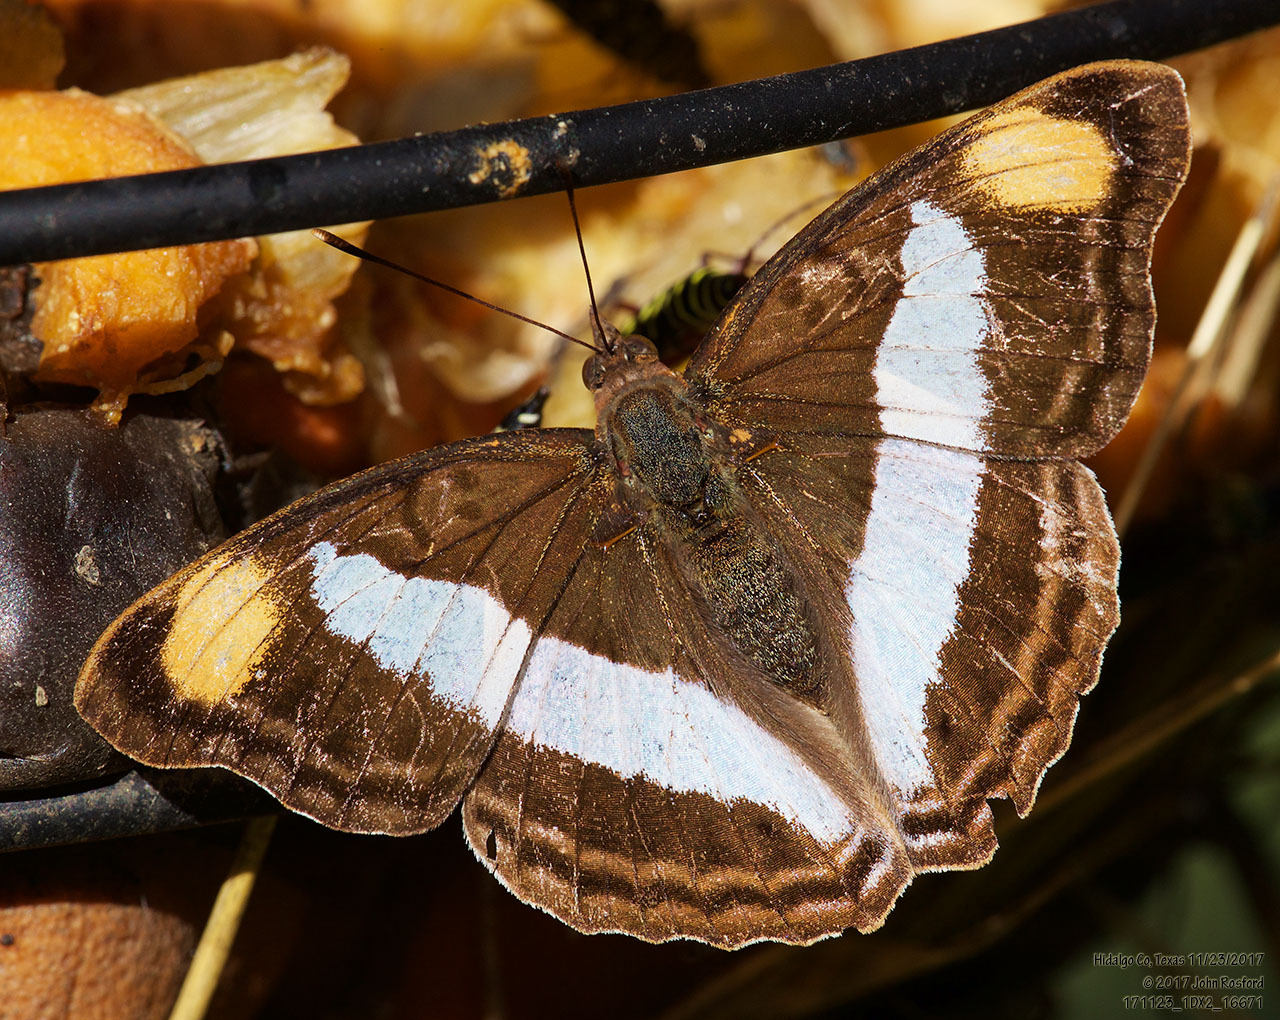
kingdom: Animalia
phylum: Arthropoda
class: Insecta
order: Lepidoptera
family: Nymphalidae
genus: Doxocopa
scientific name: Doxocopa pavon
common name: Pavon emperor
